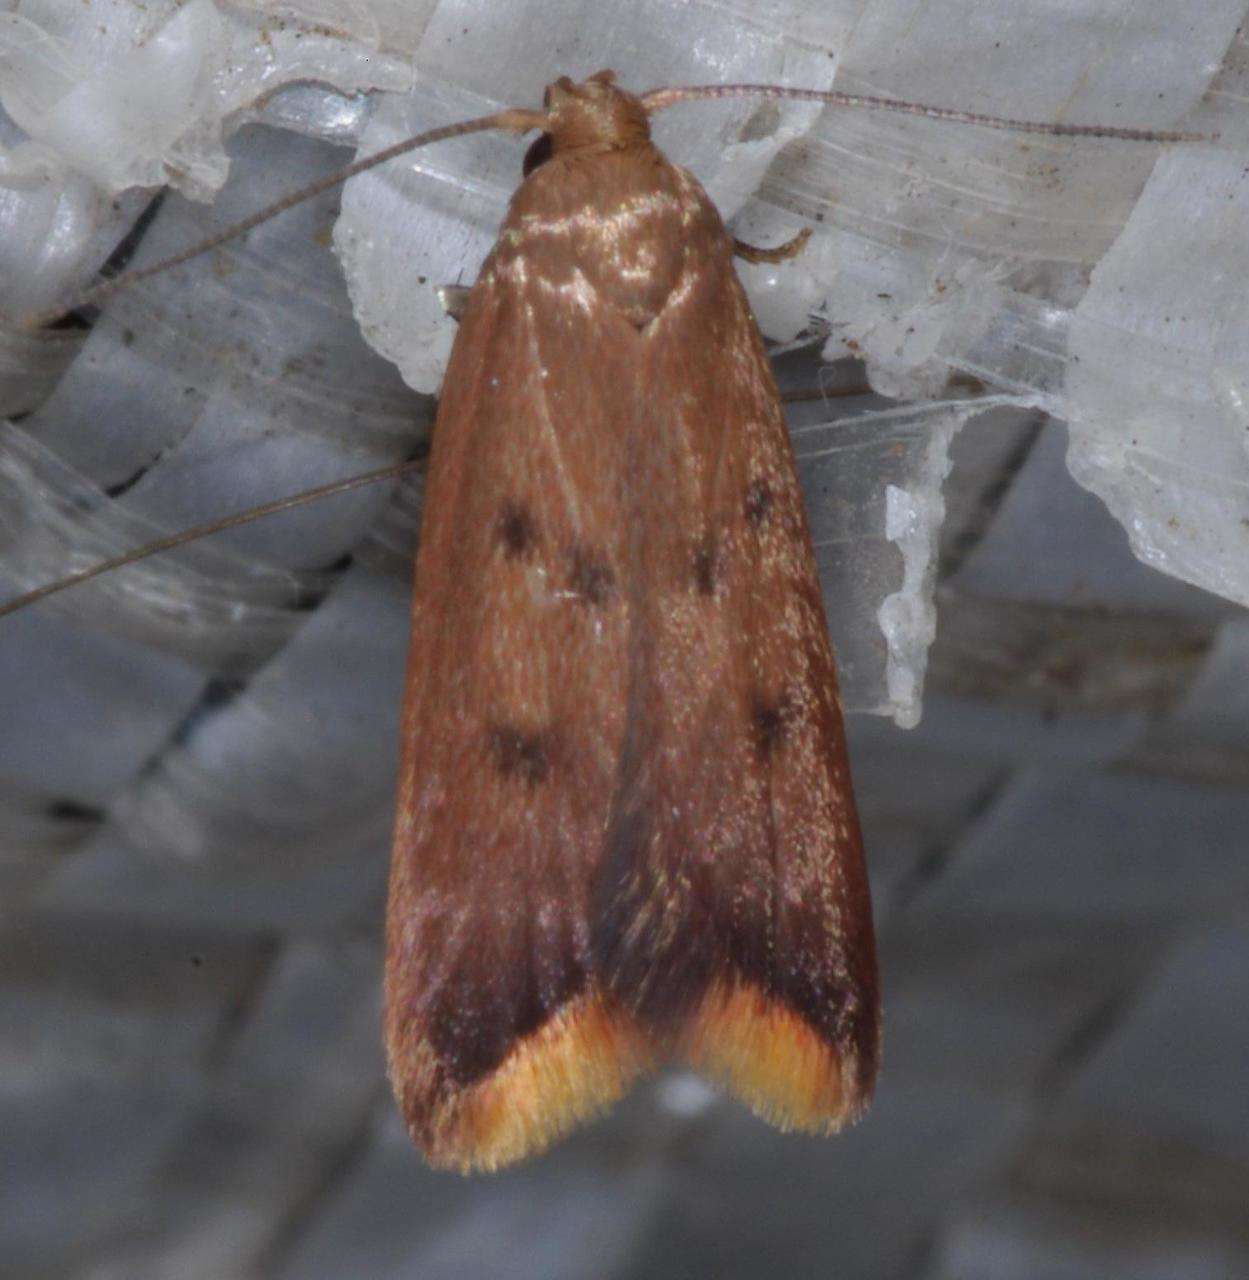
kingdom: Animalia
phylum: Arthropoda
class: Insecta
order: Lepidoptera
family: Oecophoridae
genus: Tachystola
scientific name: Tachystola acroxantha
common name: Ruddy streak
